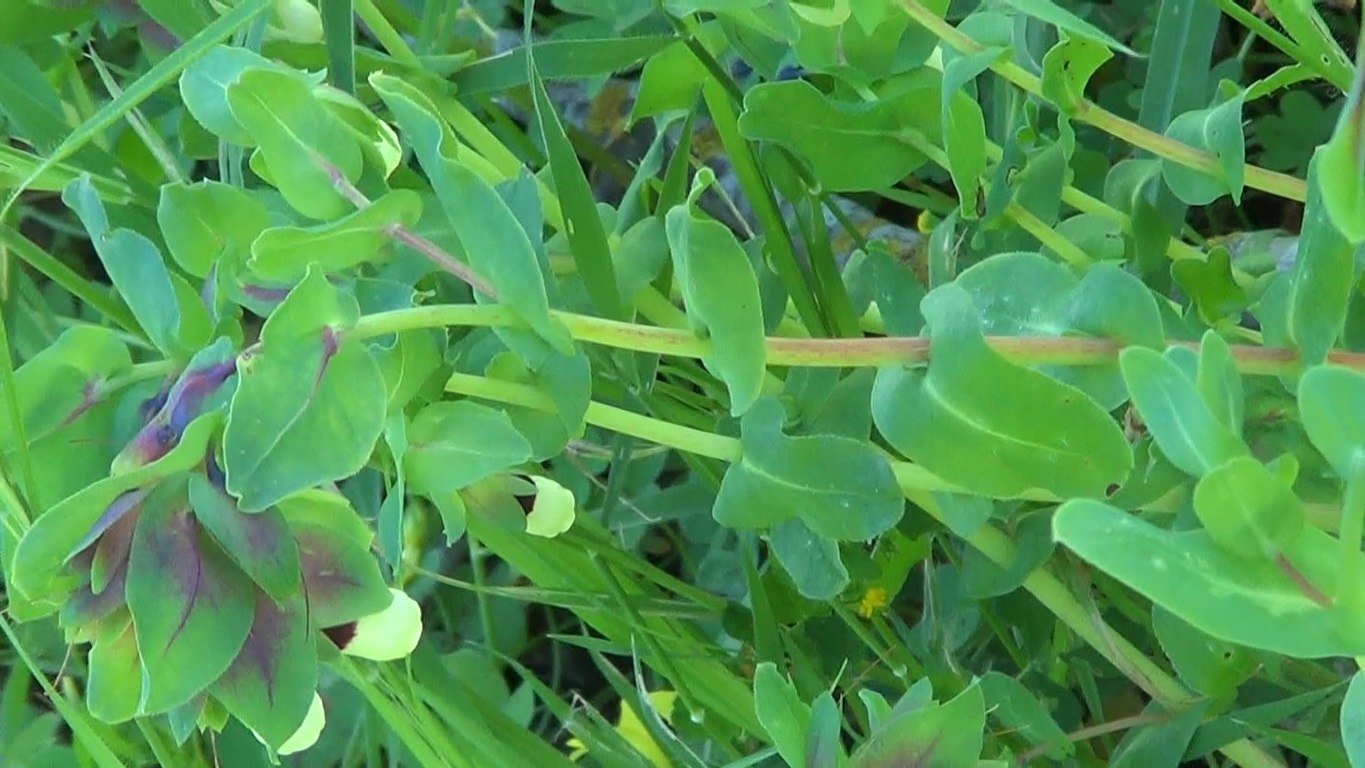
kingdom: Plantae
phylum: Tracheophyta
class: Magnoliopsida
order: Boraginales
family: Boraginaceae
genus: Cerinthe
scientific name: Cerinthe major
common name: Greater honeywort
